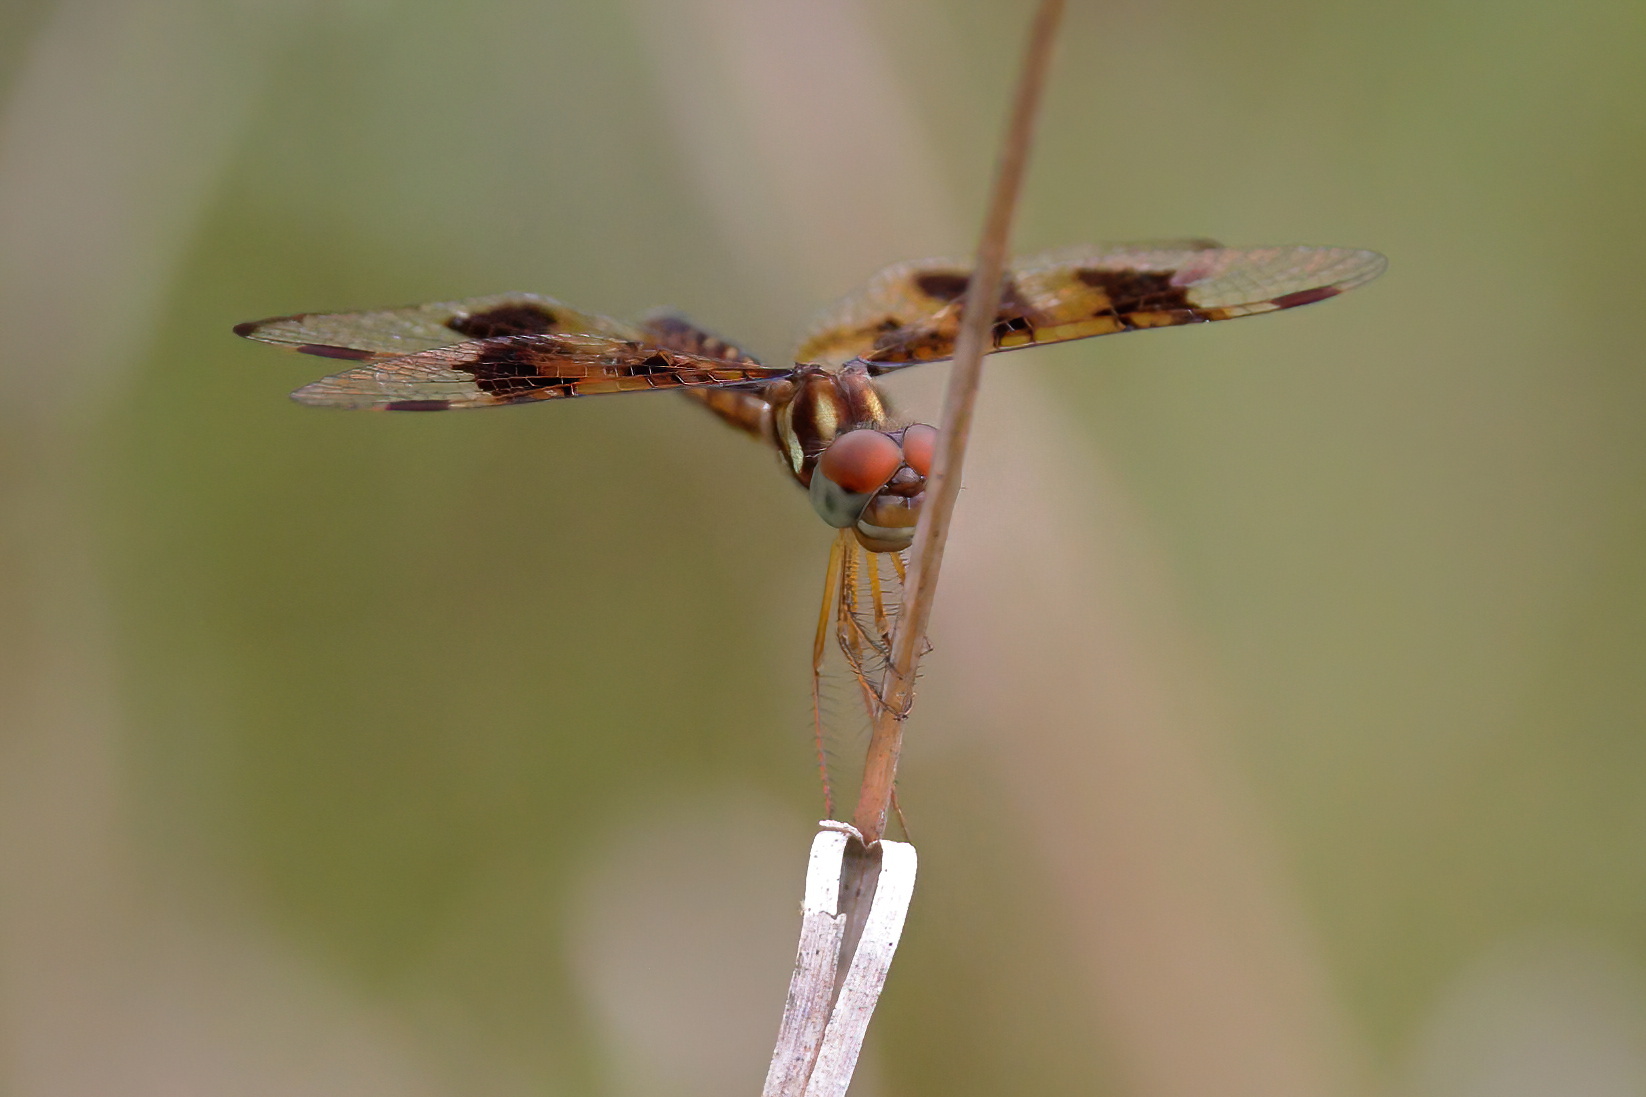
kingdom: Animalia
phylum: Arthropoda
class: Insecta
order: Odonata
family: Libellulidae
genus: Perithemis
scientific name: Perithemis tenera
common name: Eastern amberwing
